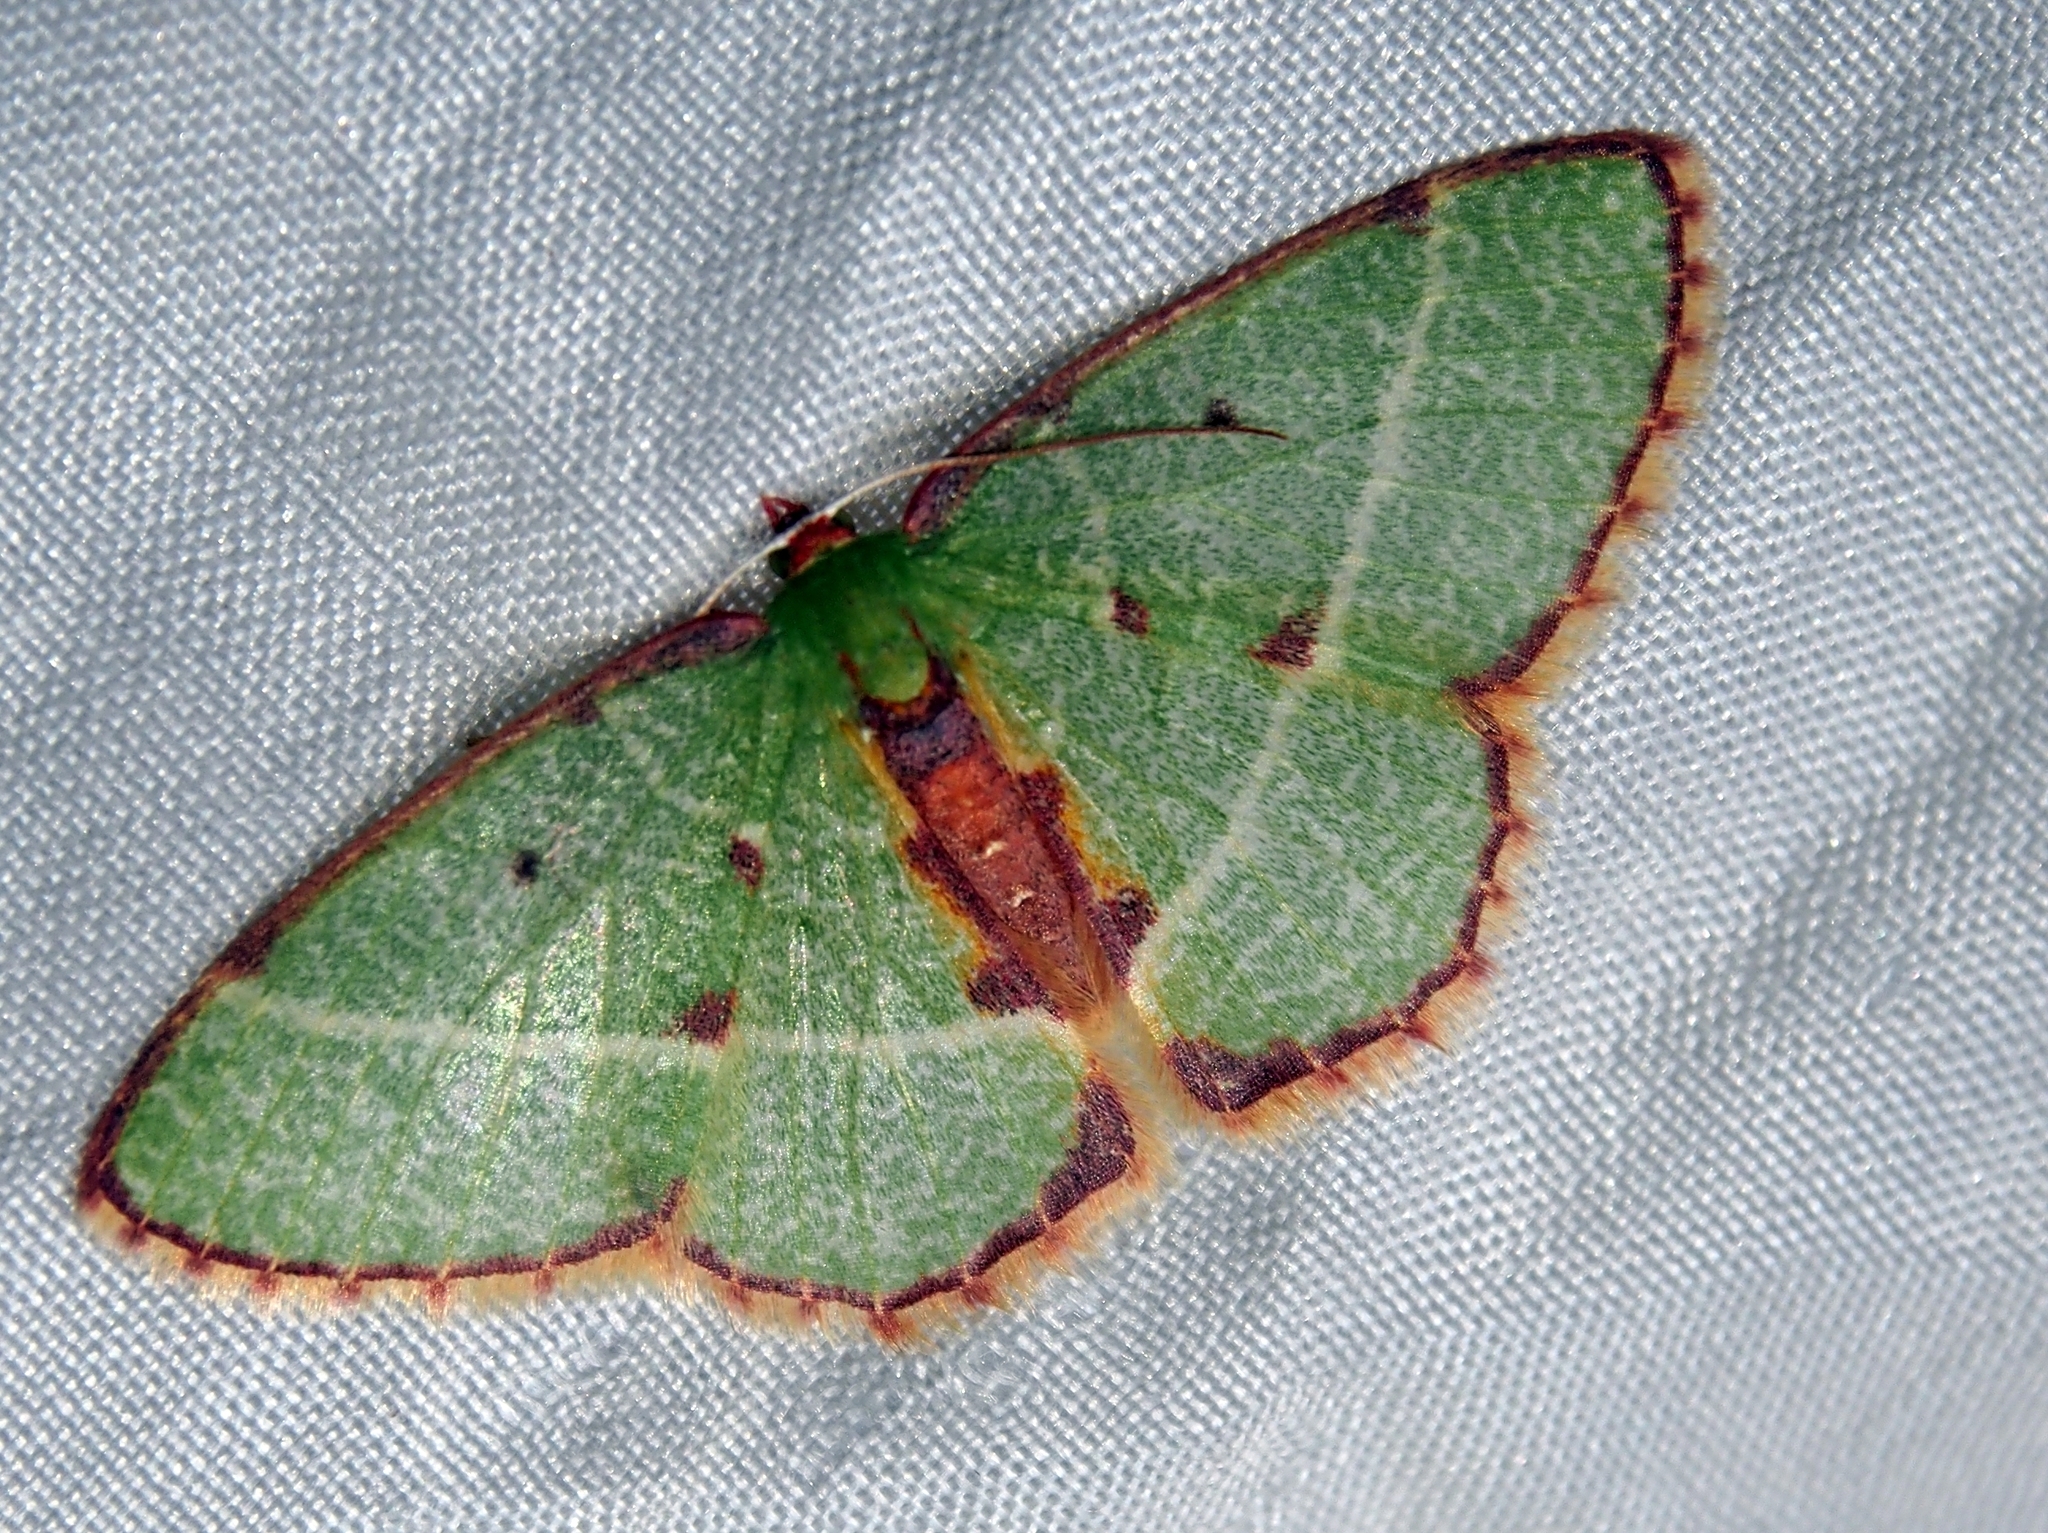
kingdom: Animalia
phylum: Arthropoda
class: Insecta
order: Lepidoptera
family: Geometridae
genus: Nemoria
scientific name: Nemoria vermiculata
